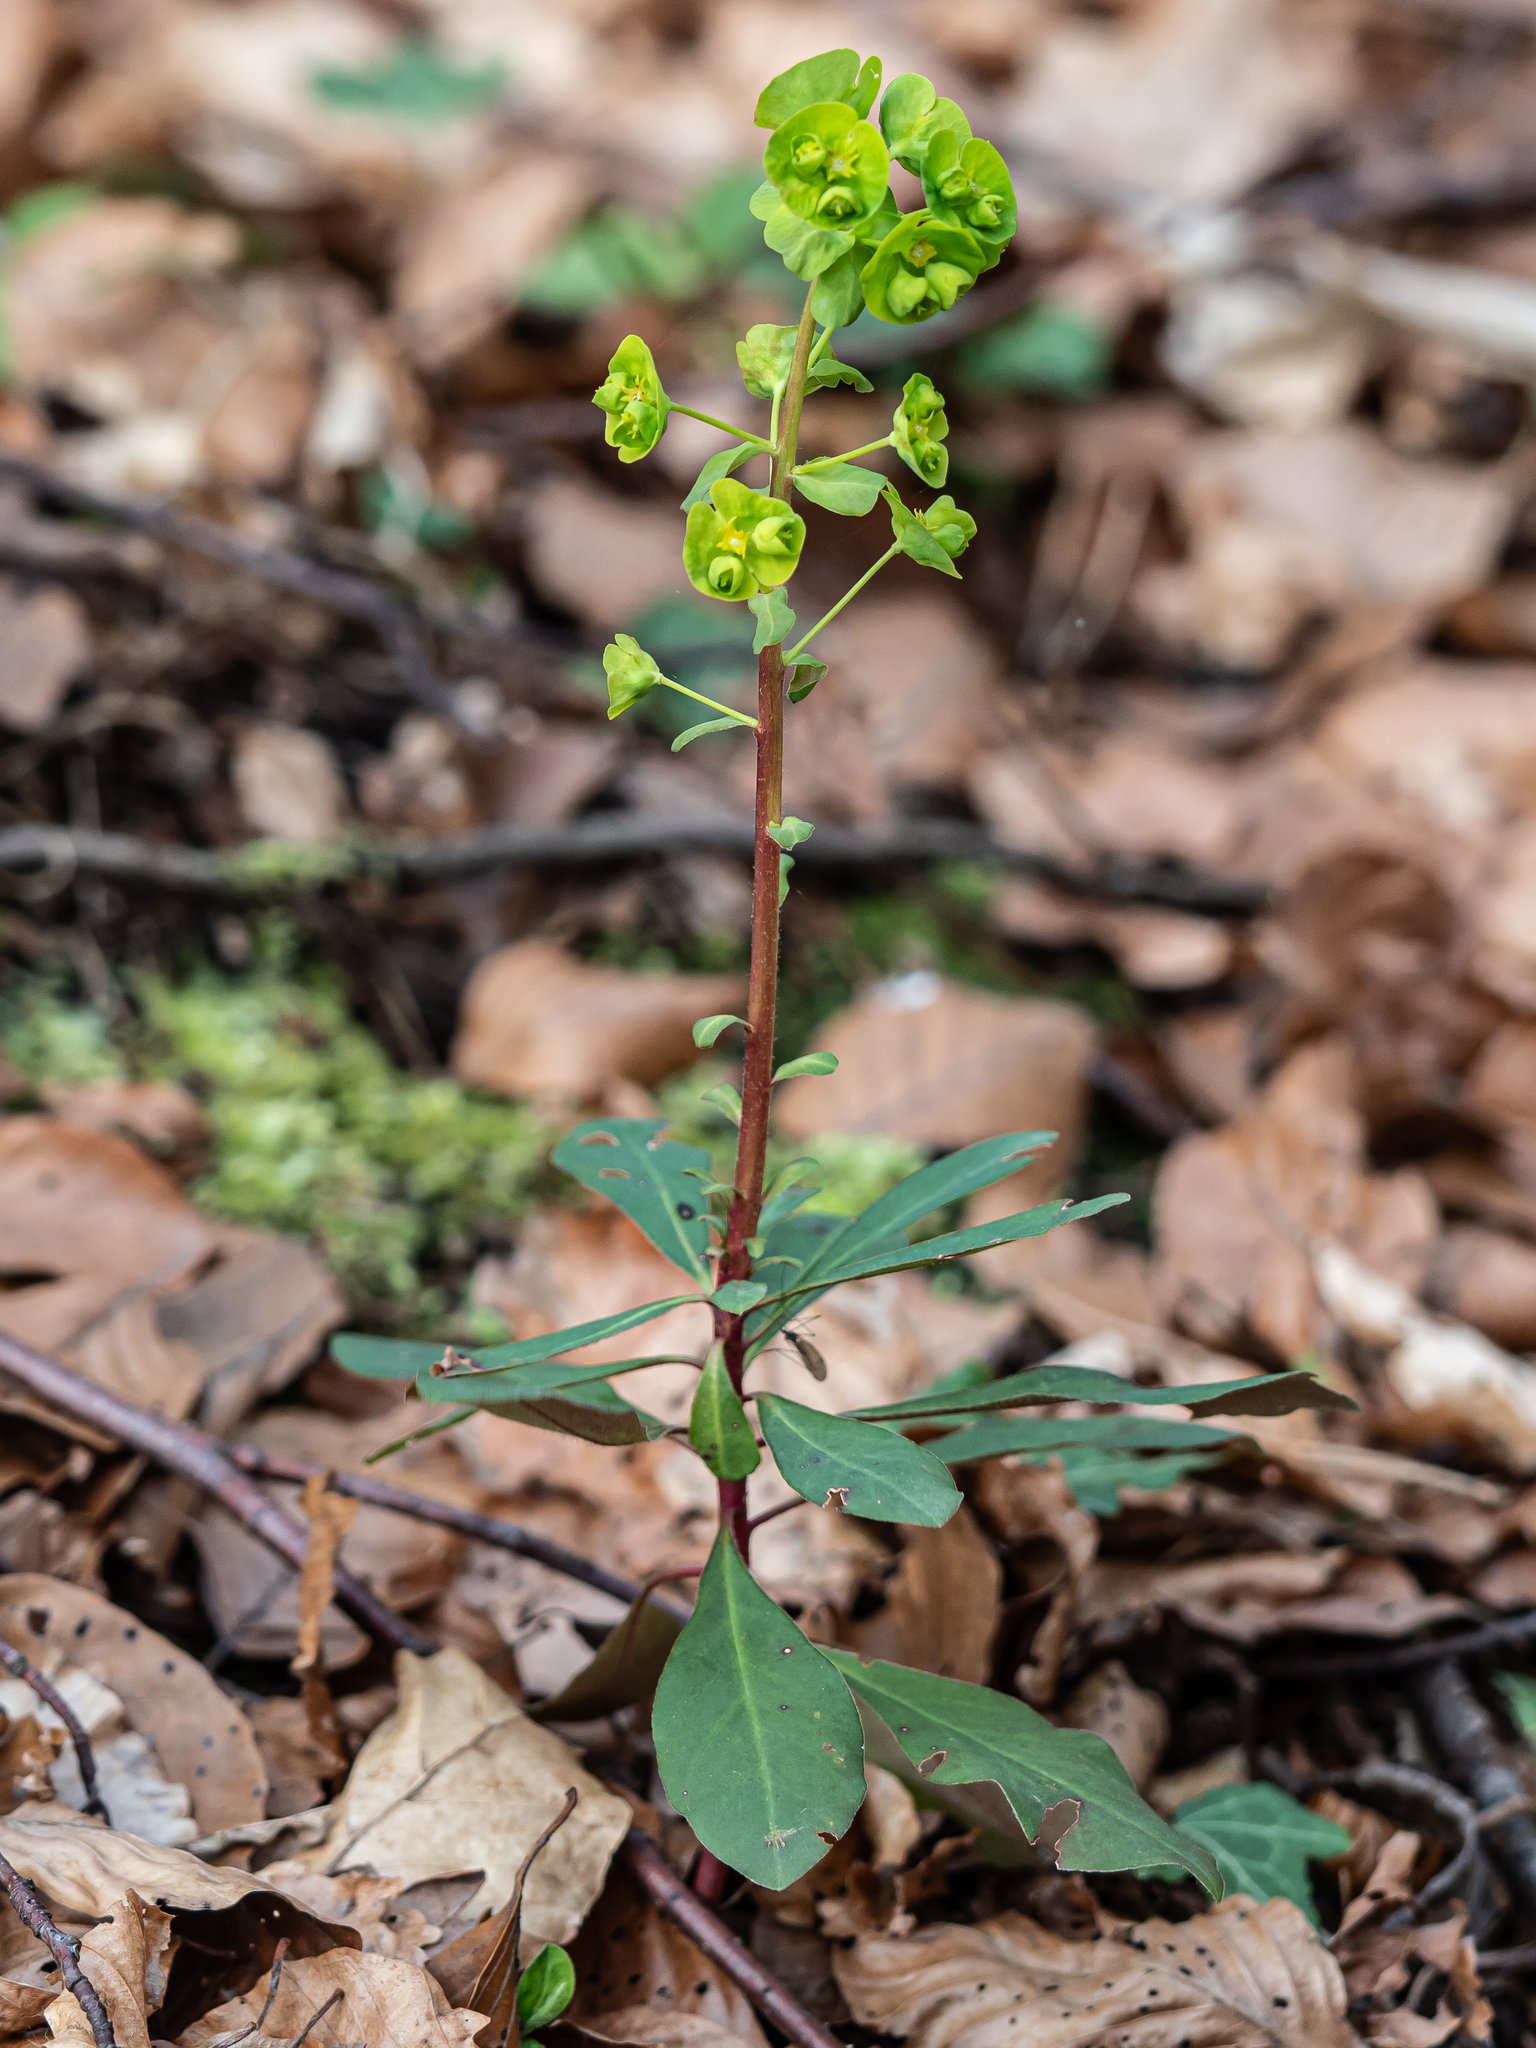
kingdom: Plantae
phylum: Tracheophyta
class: Magnoliopsida
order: Malpighiales
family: Euphorbiaceae
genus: Euphorbia
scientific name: Euphorbia amygdaloides
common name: Wood spurge
